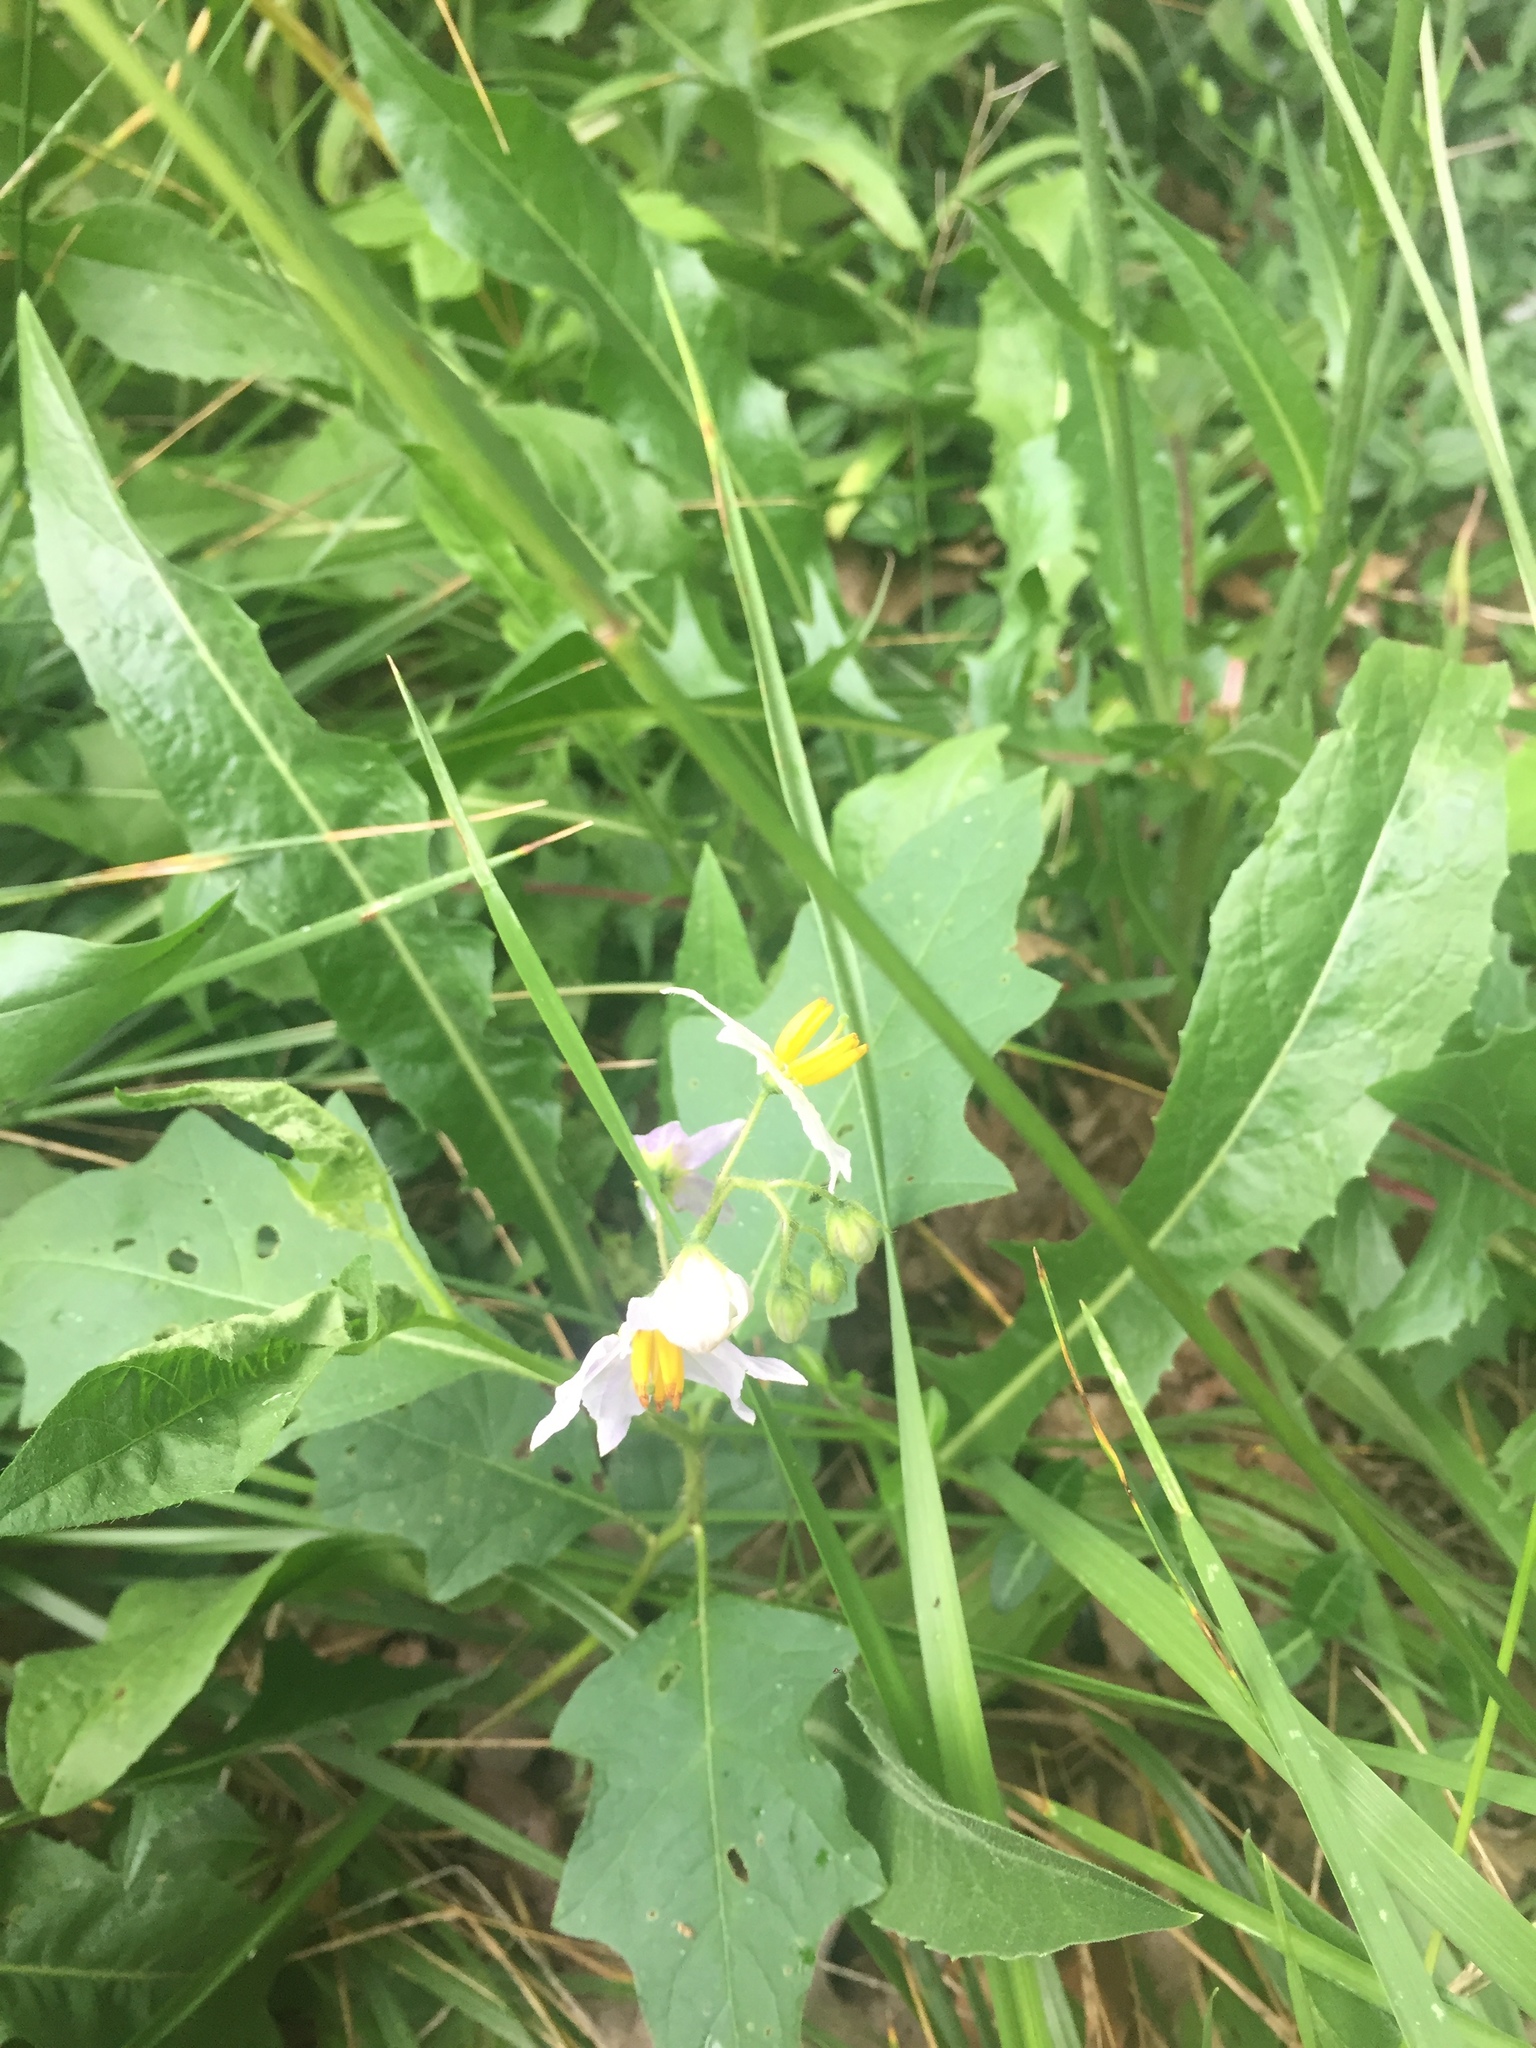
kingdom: Plantae
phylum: Tracheophyta
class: Magnoliopsida
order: Solanales
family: Solanaceae
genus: Solanum
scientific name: Solanum carolinense
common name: Horse-nettle
